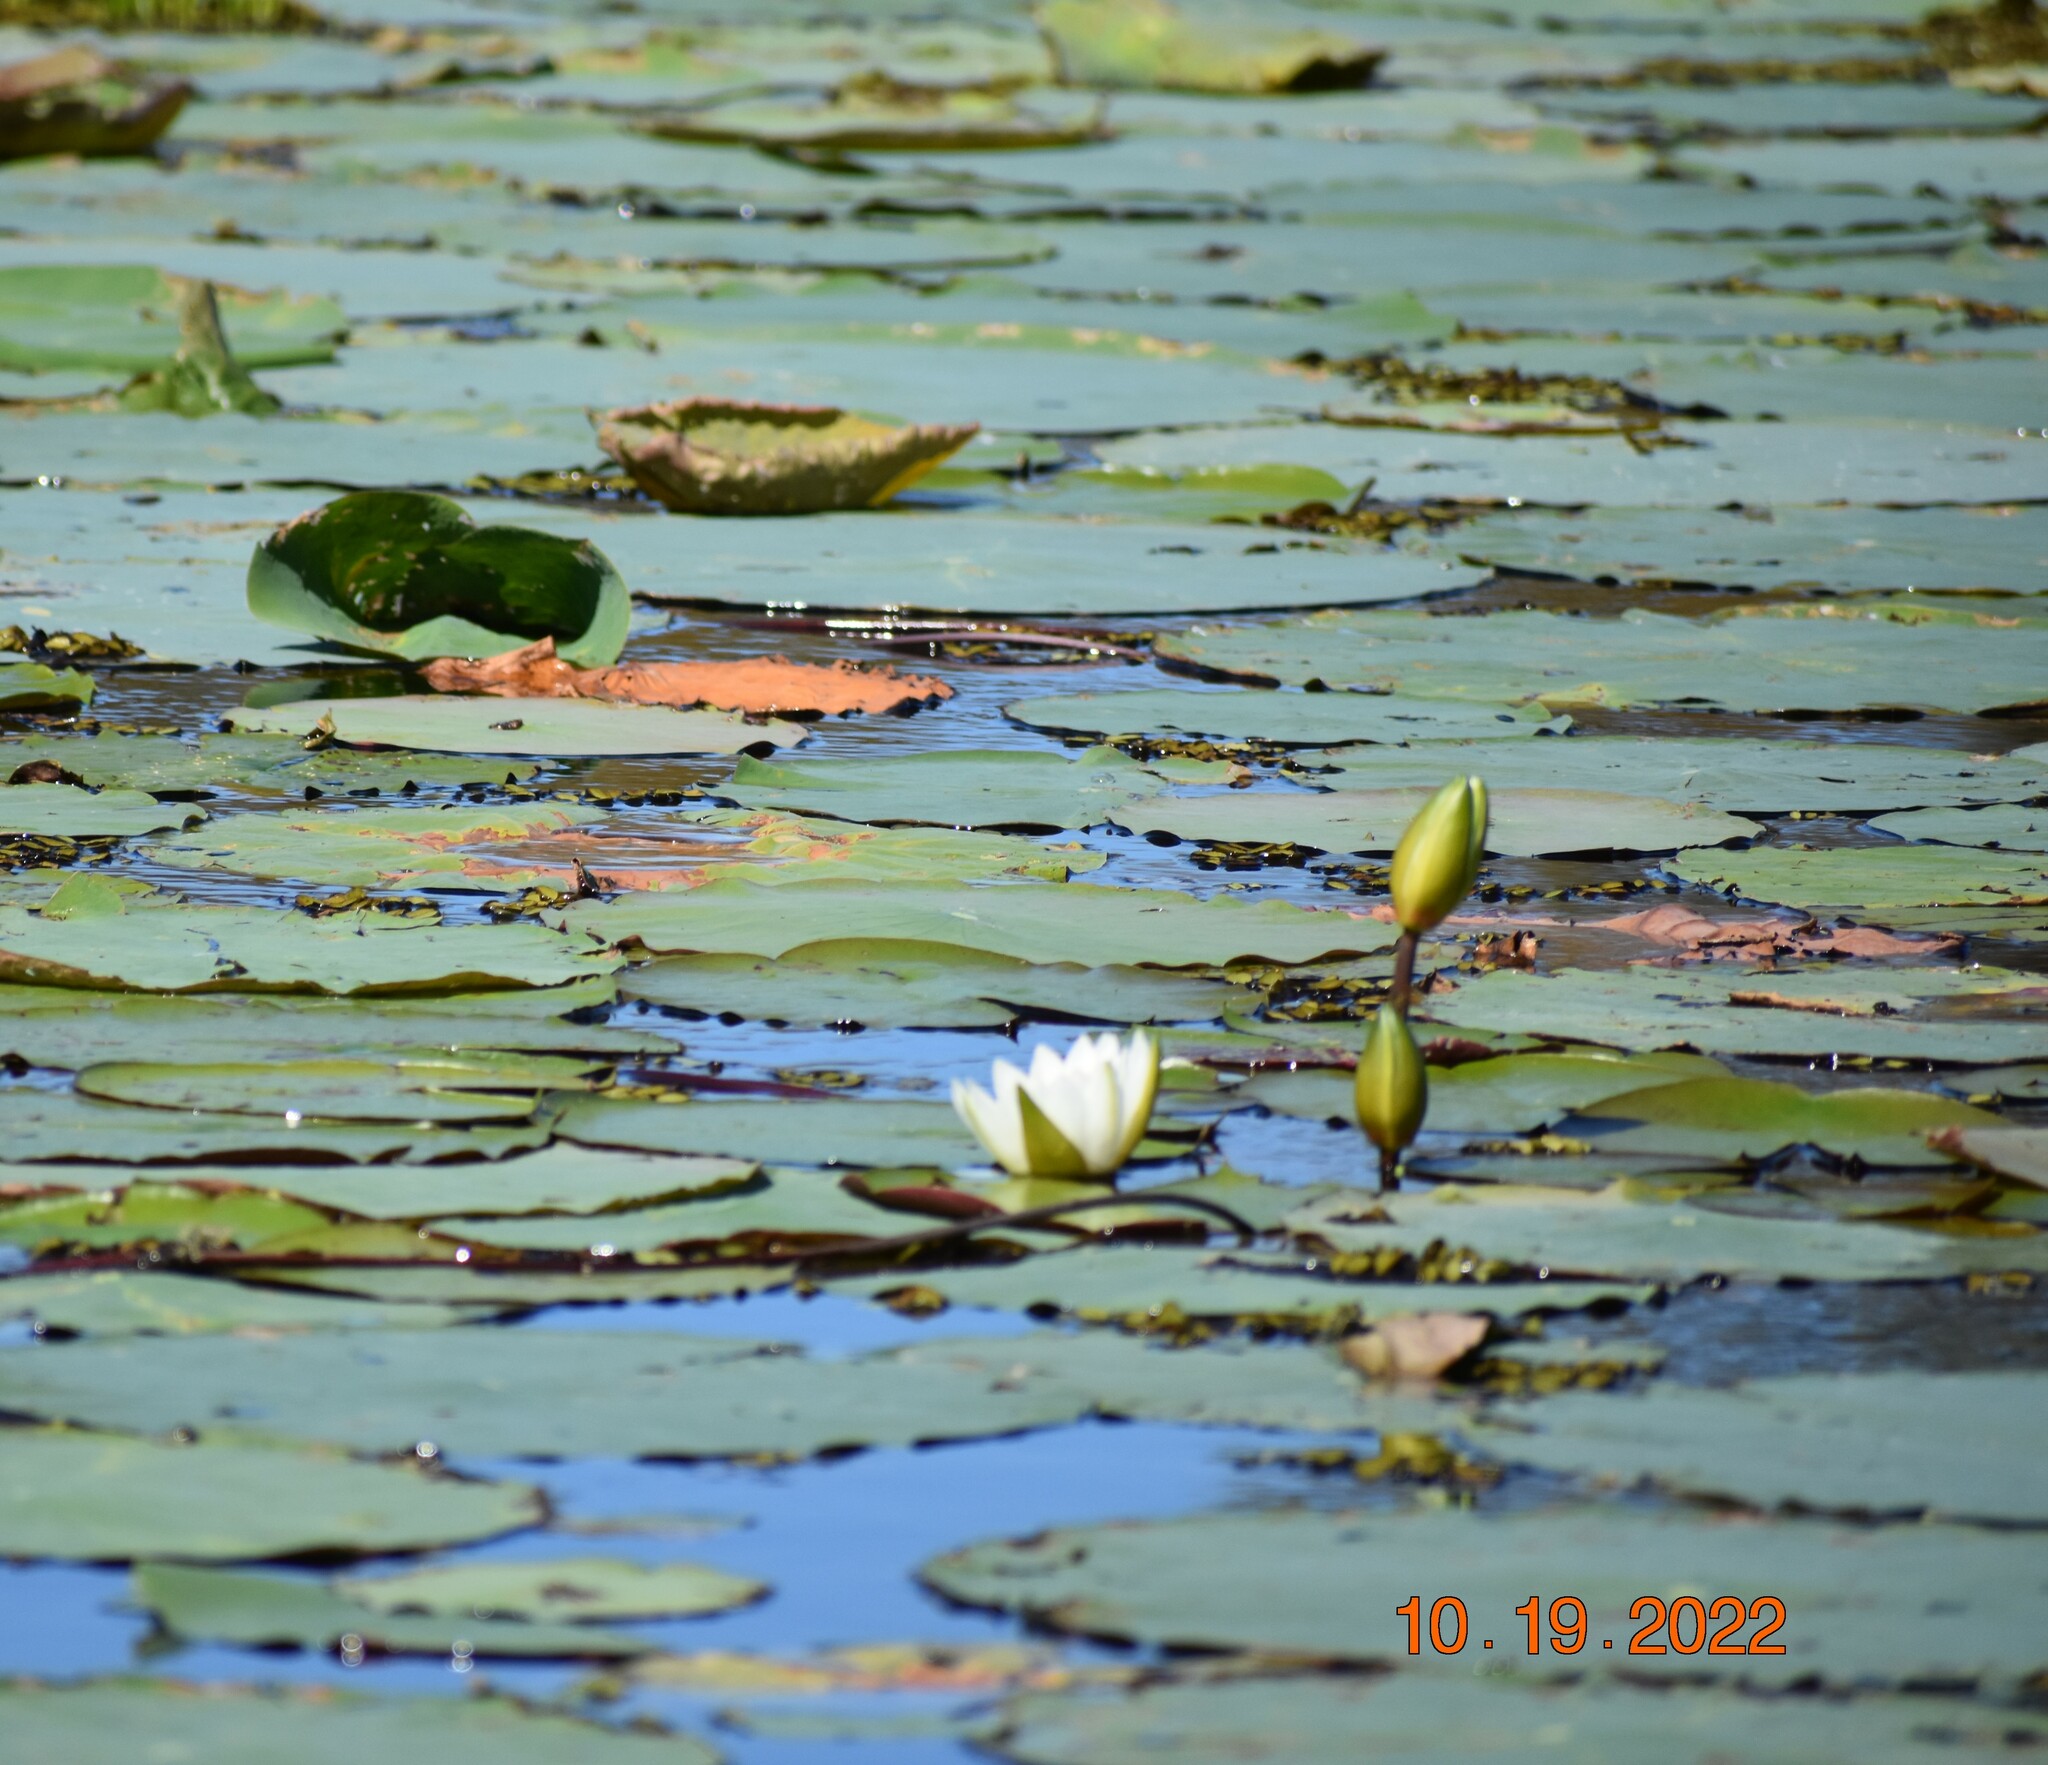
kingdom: Plantae
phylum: Tracheophyta
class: Magnoliopsida
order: Nymphaeales
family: Nymphaeaceae
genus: Nymphaea
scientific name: Nymphaea odorata
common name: Fragrant water-lily
